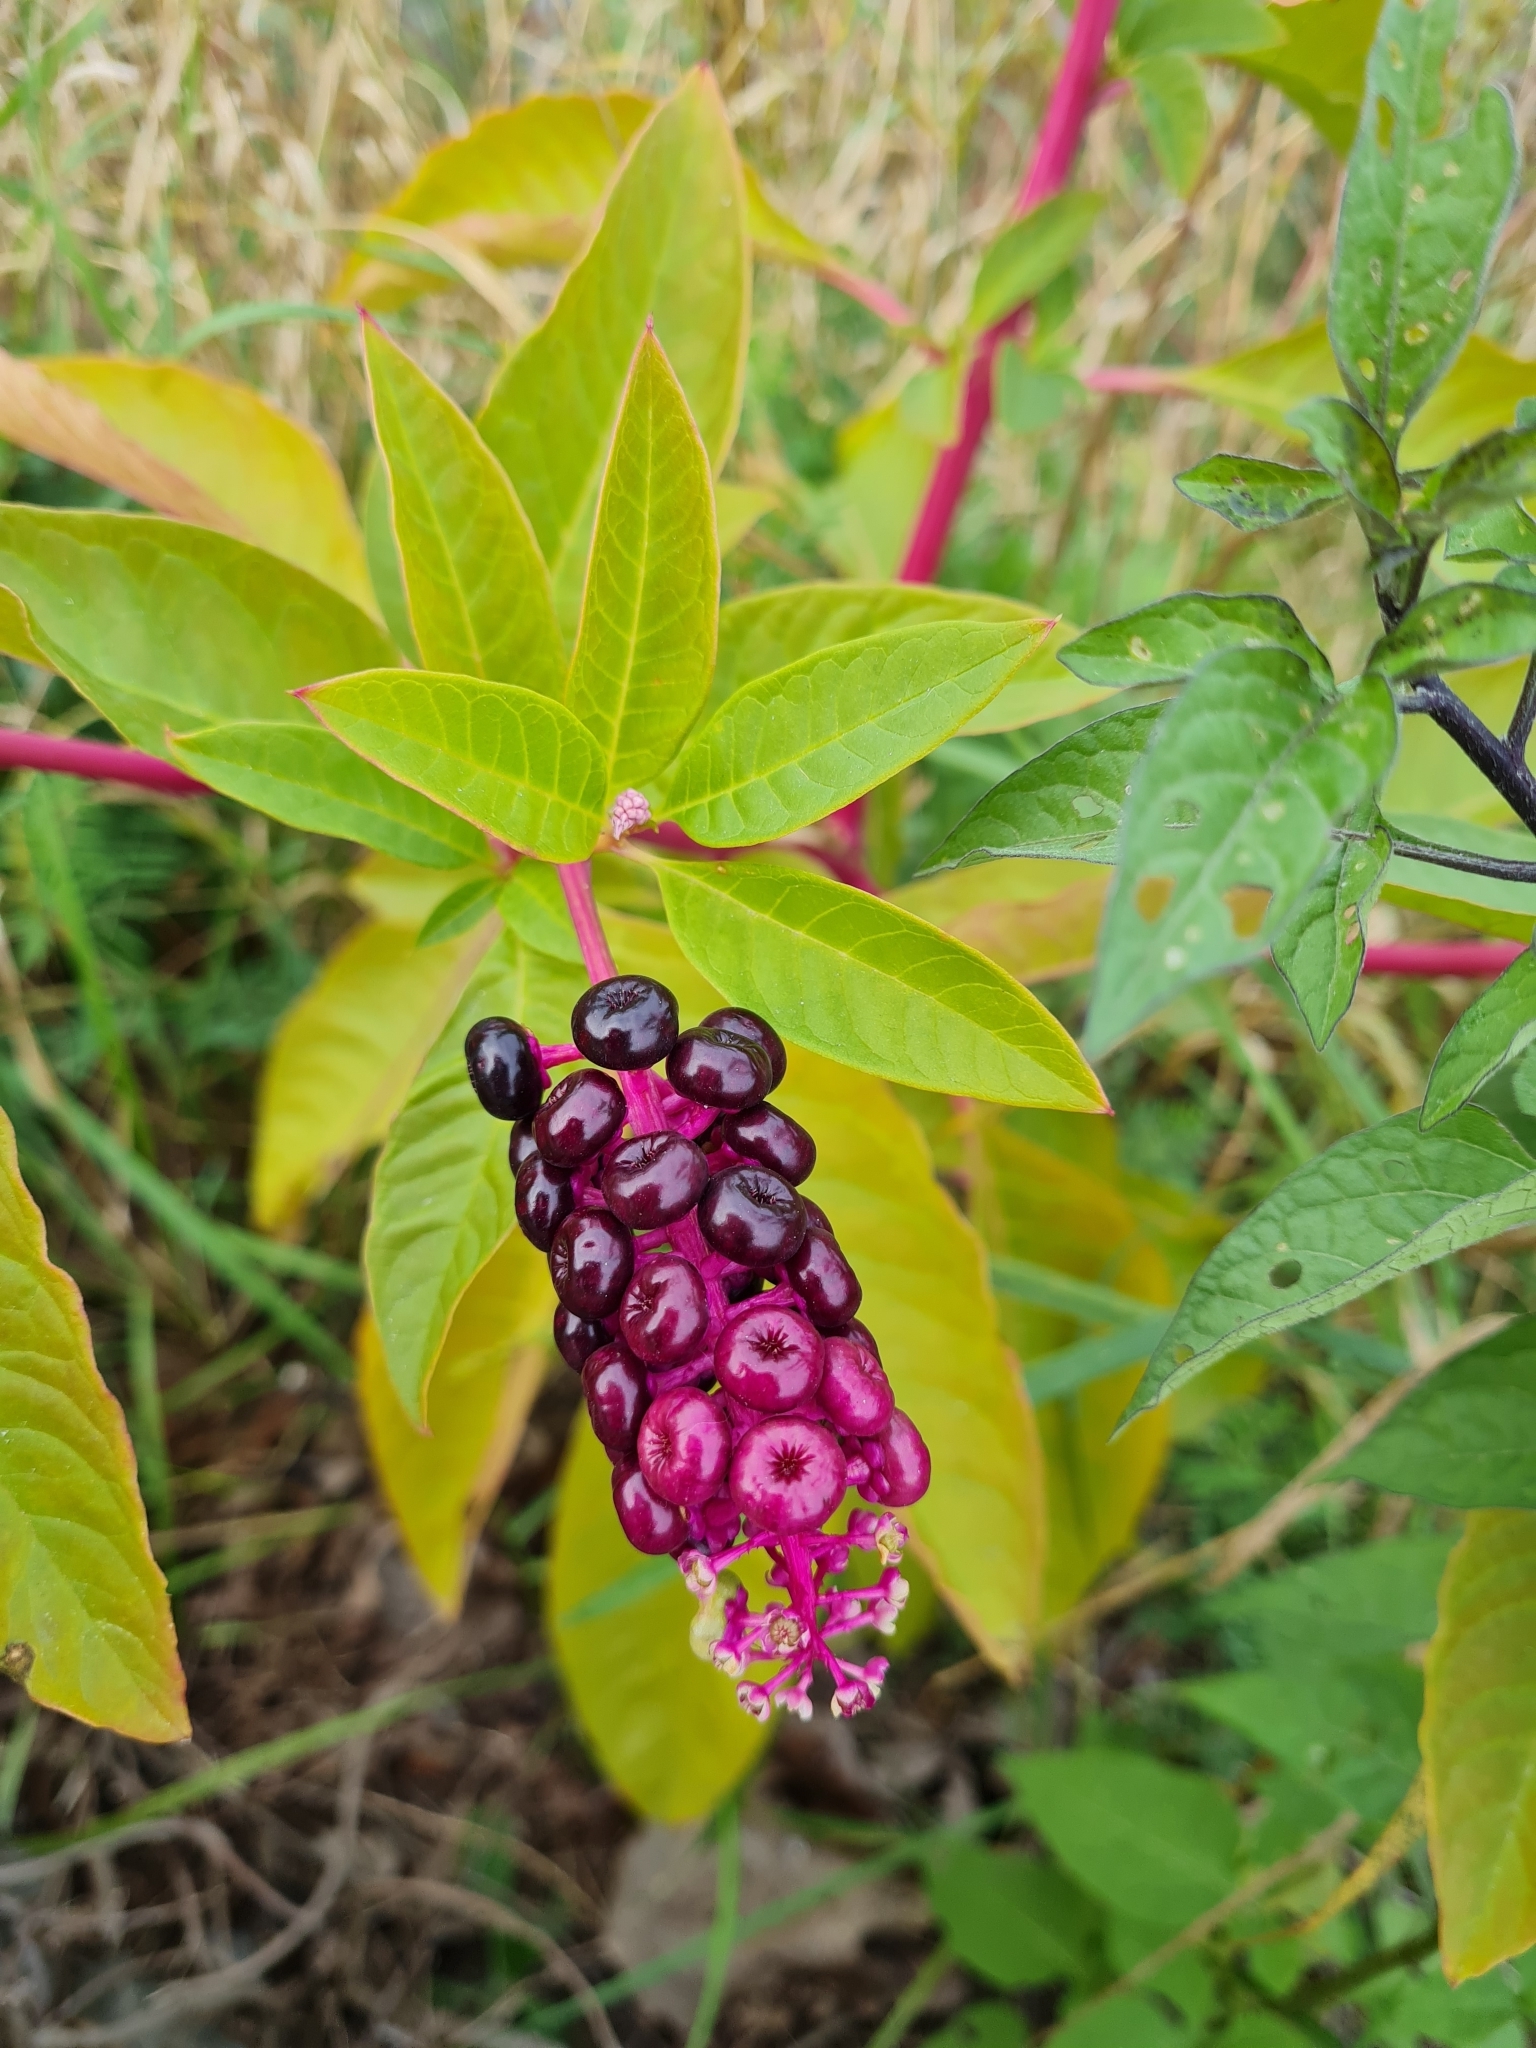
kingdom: Plantae
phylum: Tracheophyta
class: Magnoliopsida
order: Caryophyllales
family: Phytolaccaceae
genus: Phytolacca
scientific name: Phytolacca americana
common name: American pokeweed
